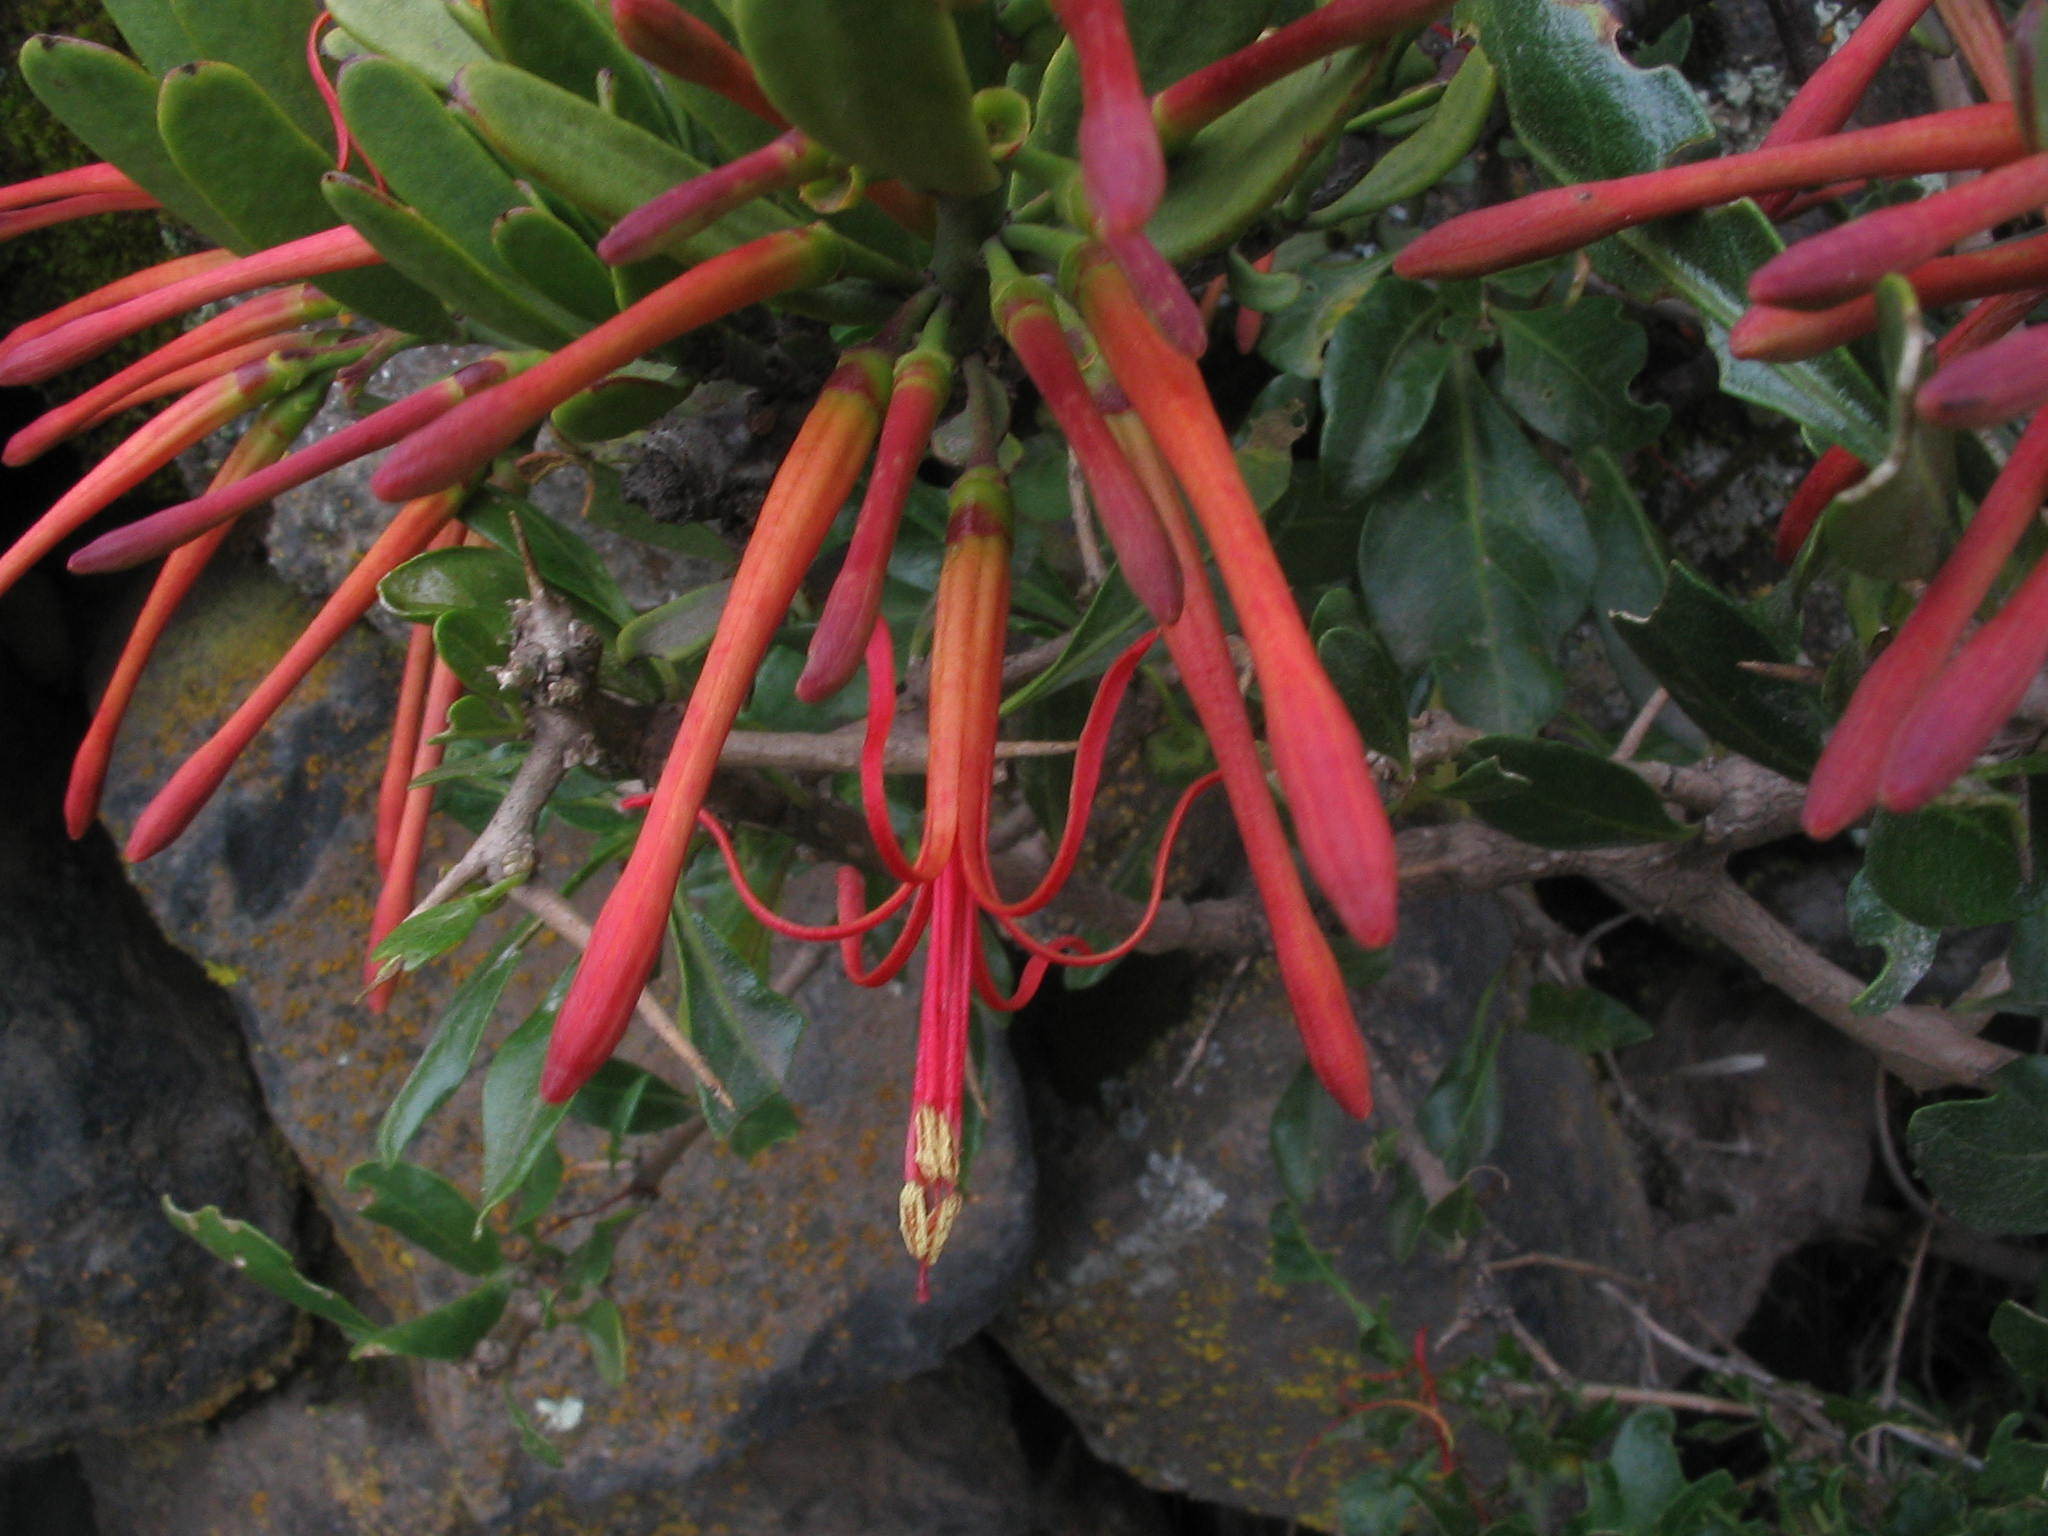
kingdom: Plantae
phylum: Tracheophyta
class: Magnoliopsida
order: Santalales
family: Loranthaceae
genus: Ligaria
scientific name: Ligaria cuneifolia
